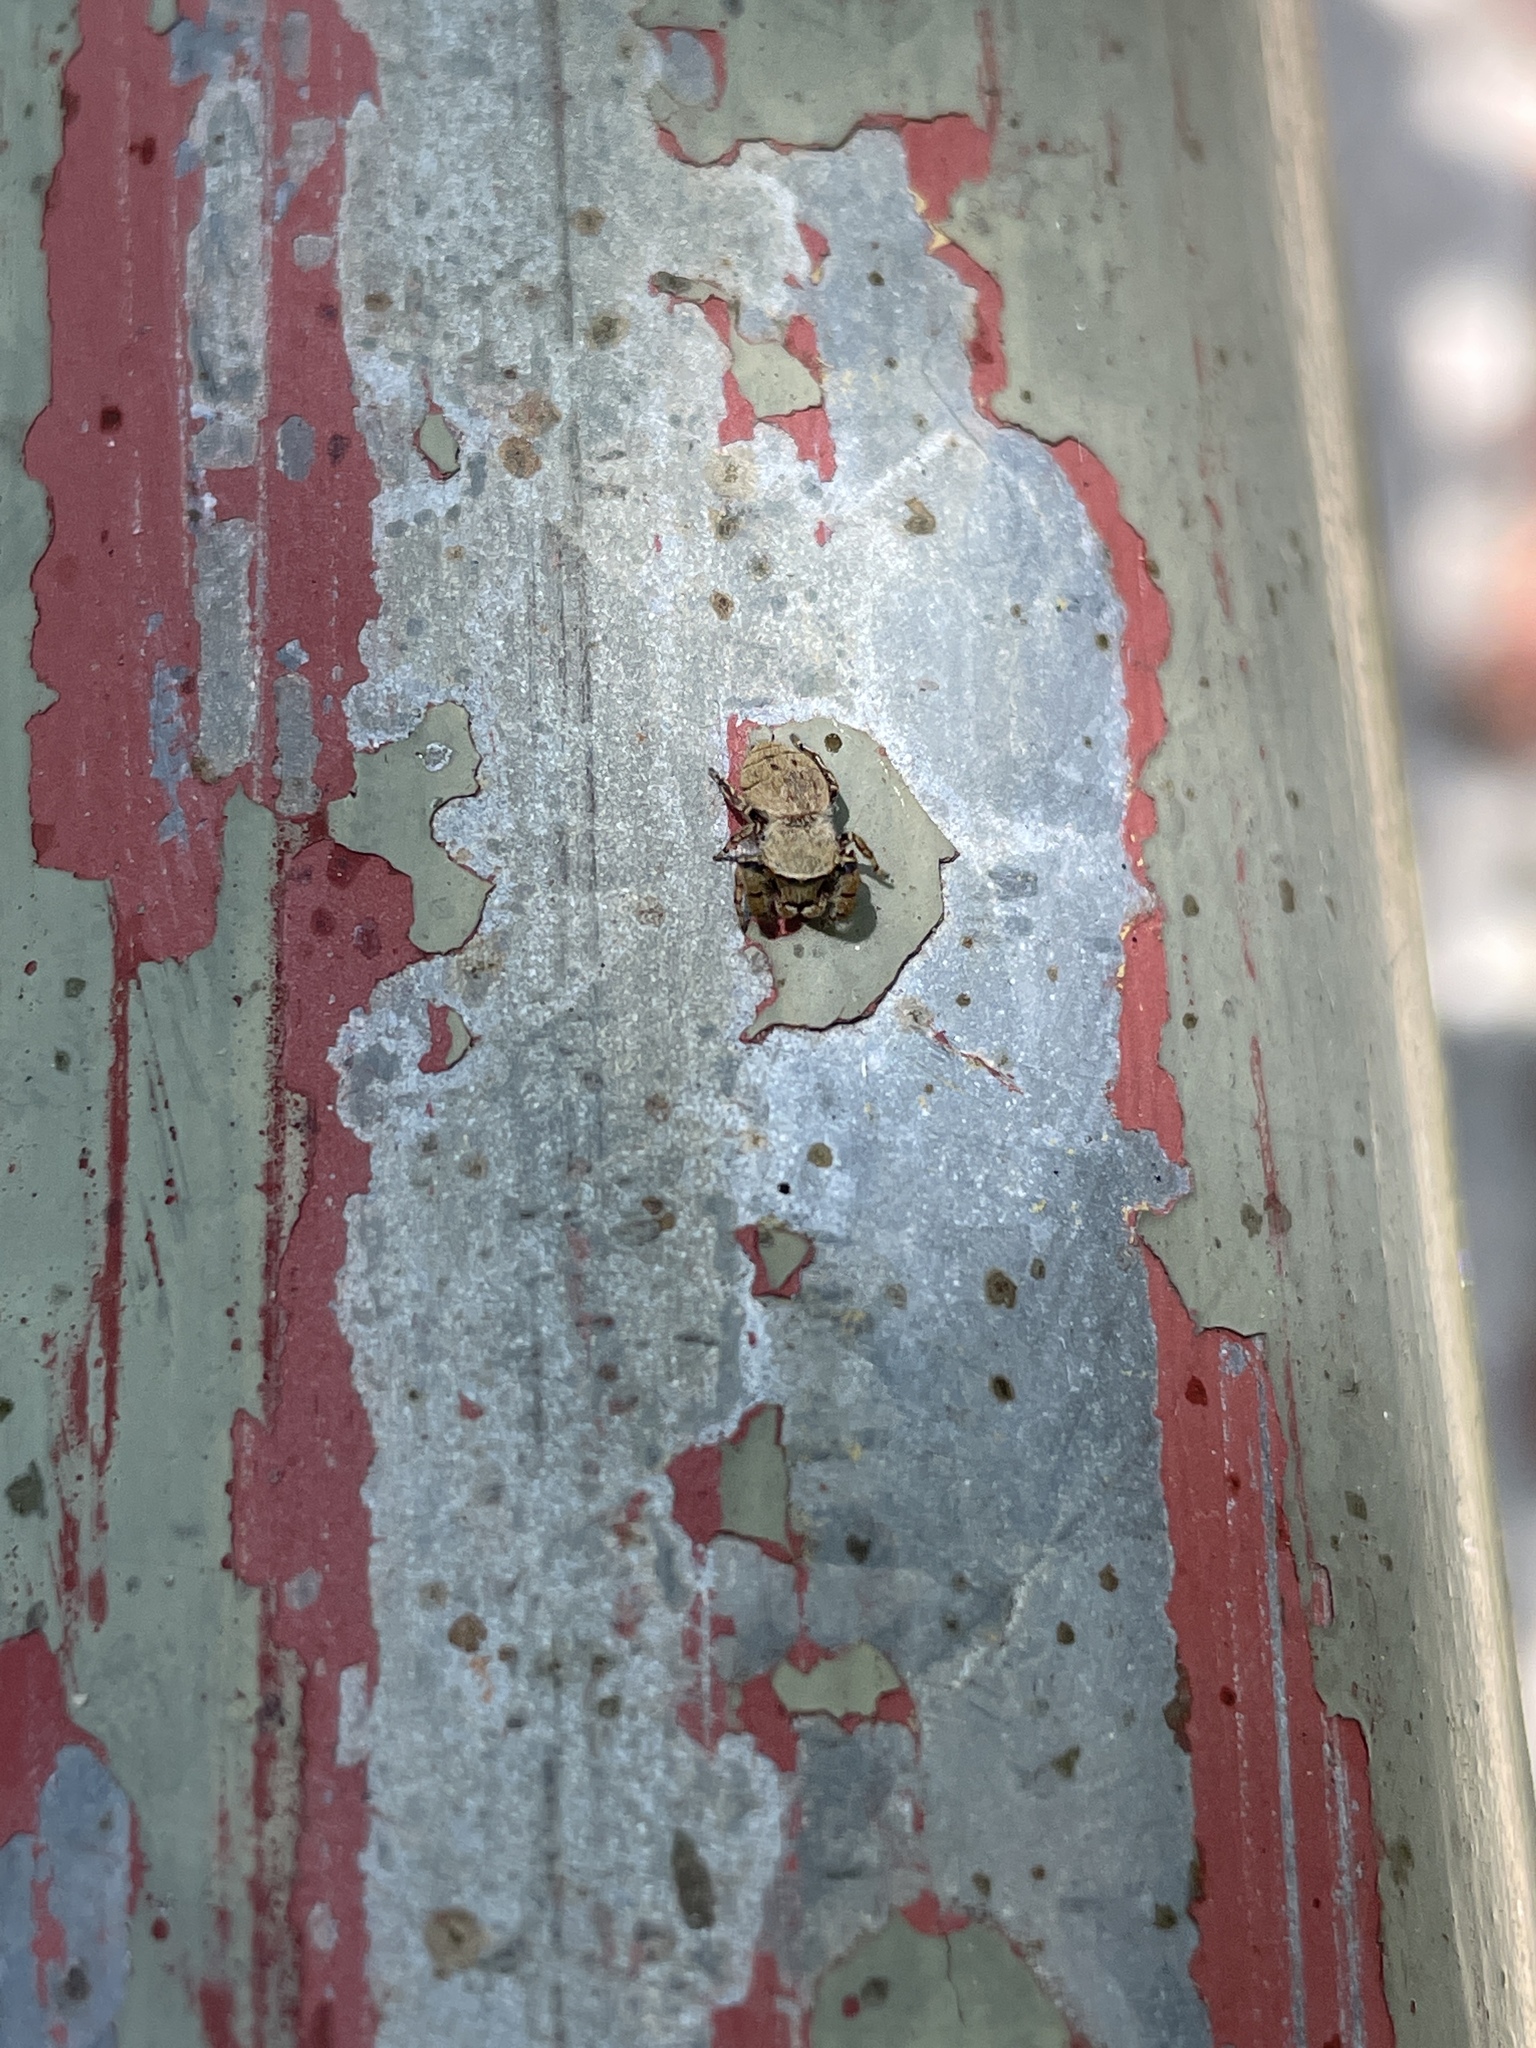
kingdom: Animalia
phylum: Arthropoda
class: Arachnida
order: Araneae
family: Salticidae
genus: Rhene
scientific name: Rhene flavicomans
